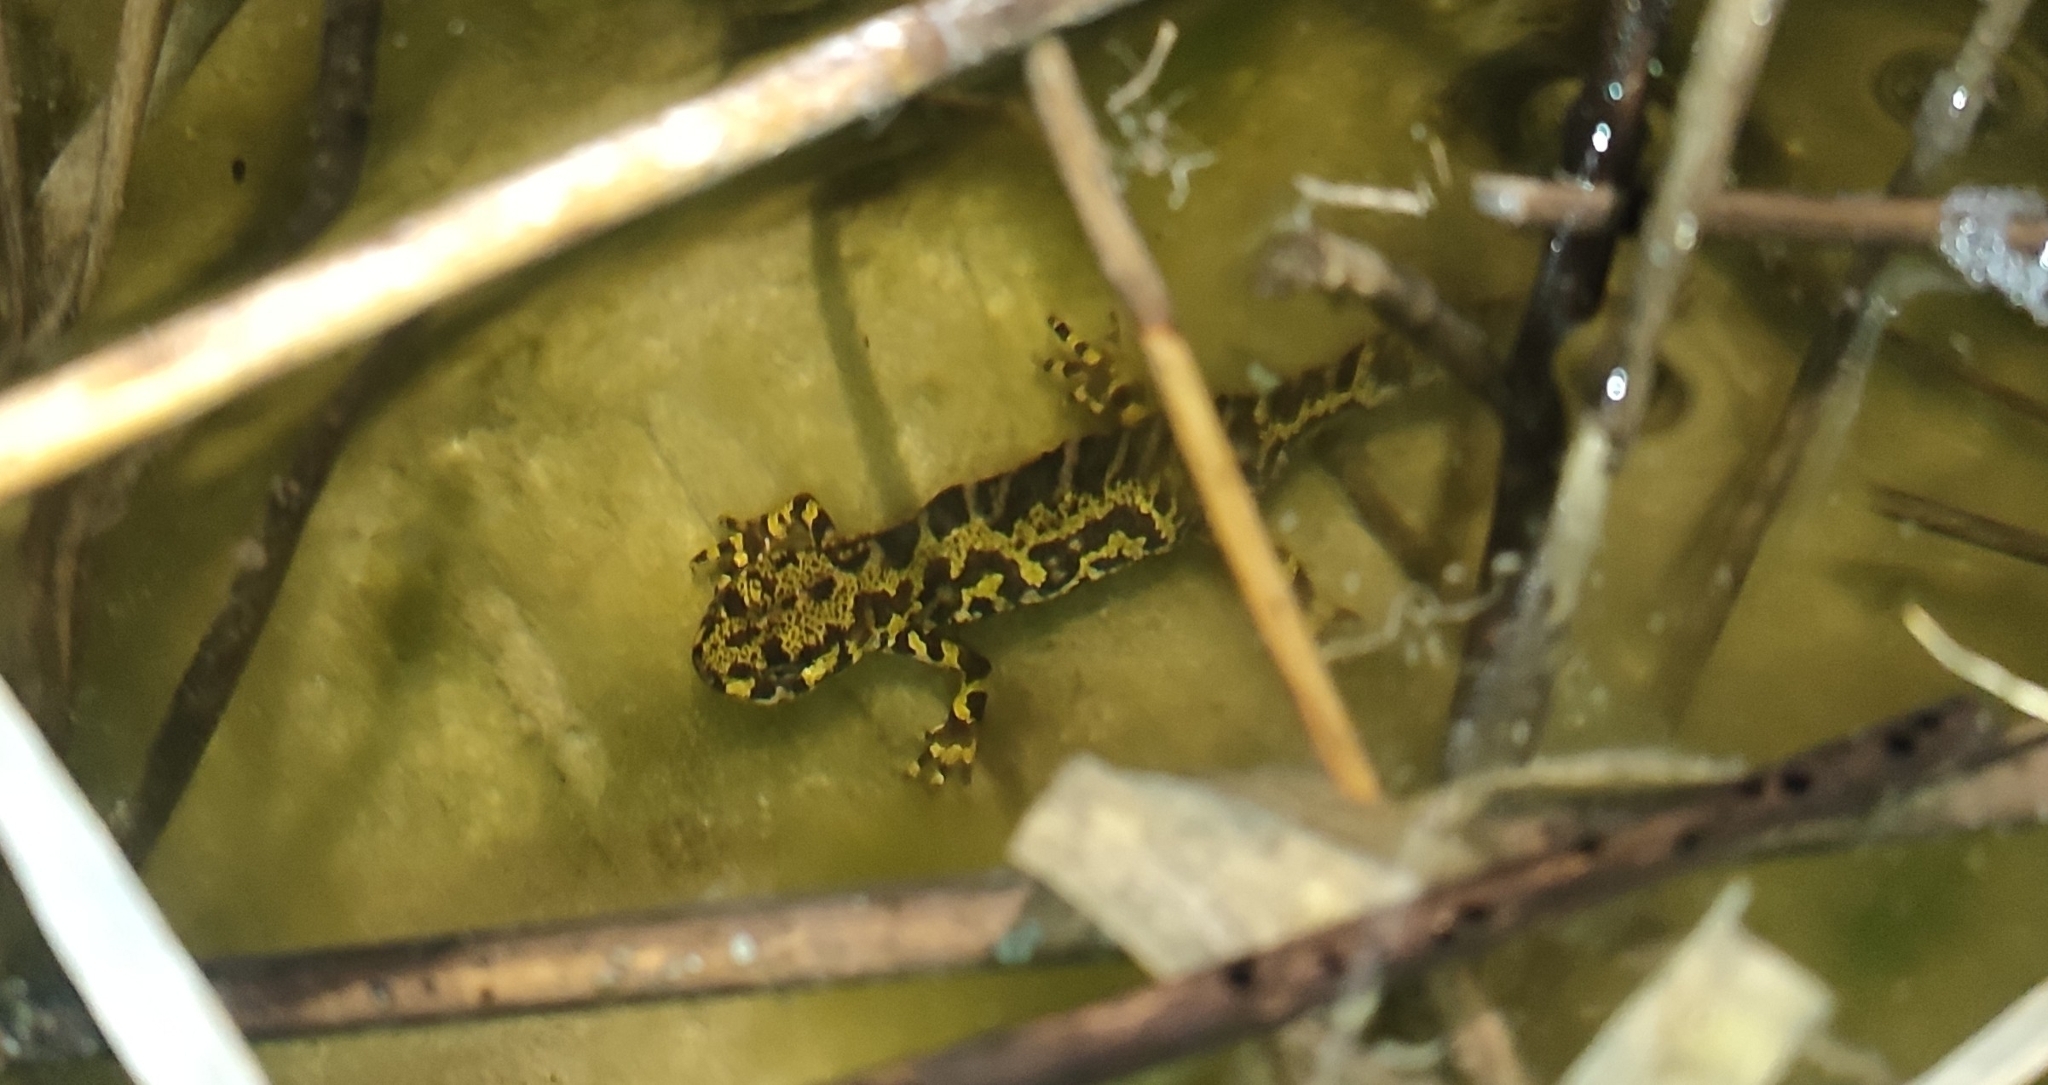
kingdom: Animalia
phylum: Chordata
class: Amphibia
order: Caudata
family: Salamandridae
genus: Triturus
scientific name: Triturus marmoratus
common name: Marbled newt
